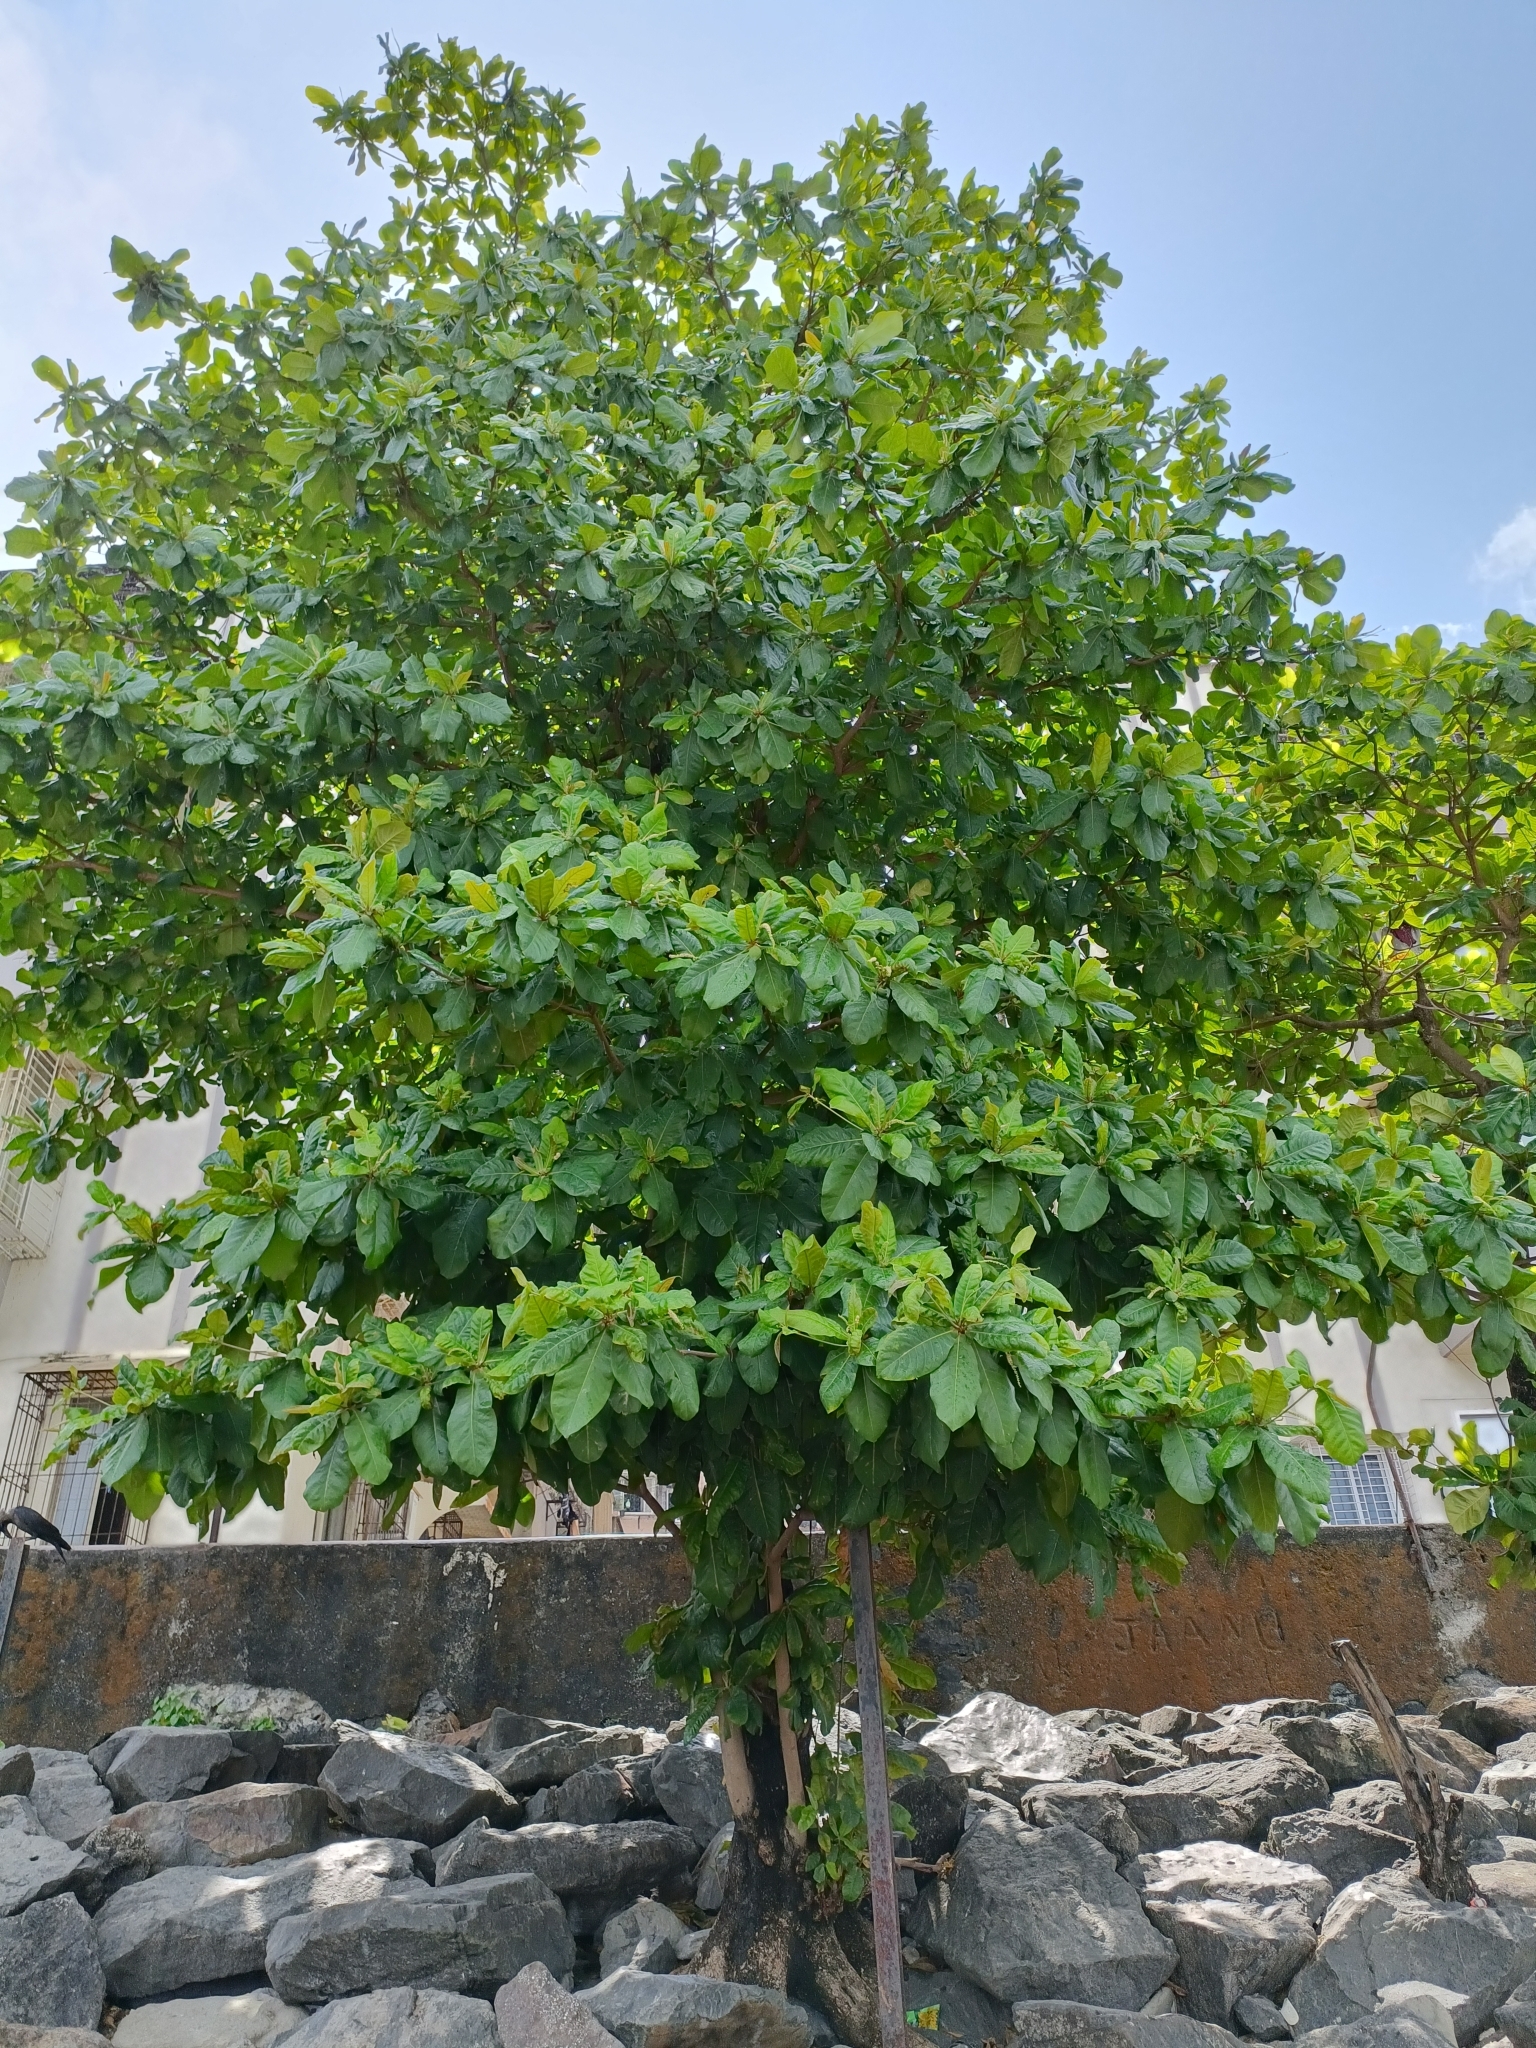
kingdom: Plantae
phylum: Tracheophyta
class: Magnoliopsida
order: Myrtales
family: Combretaceae
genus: Terminalia
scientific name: Terminalia catappa
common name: Tropical almond
